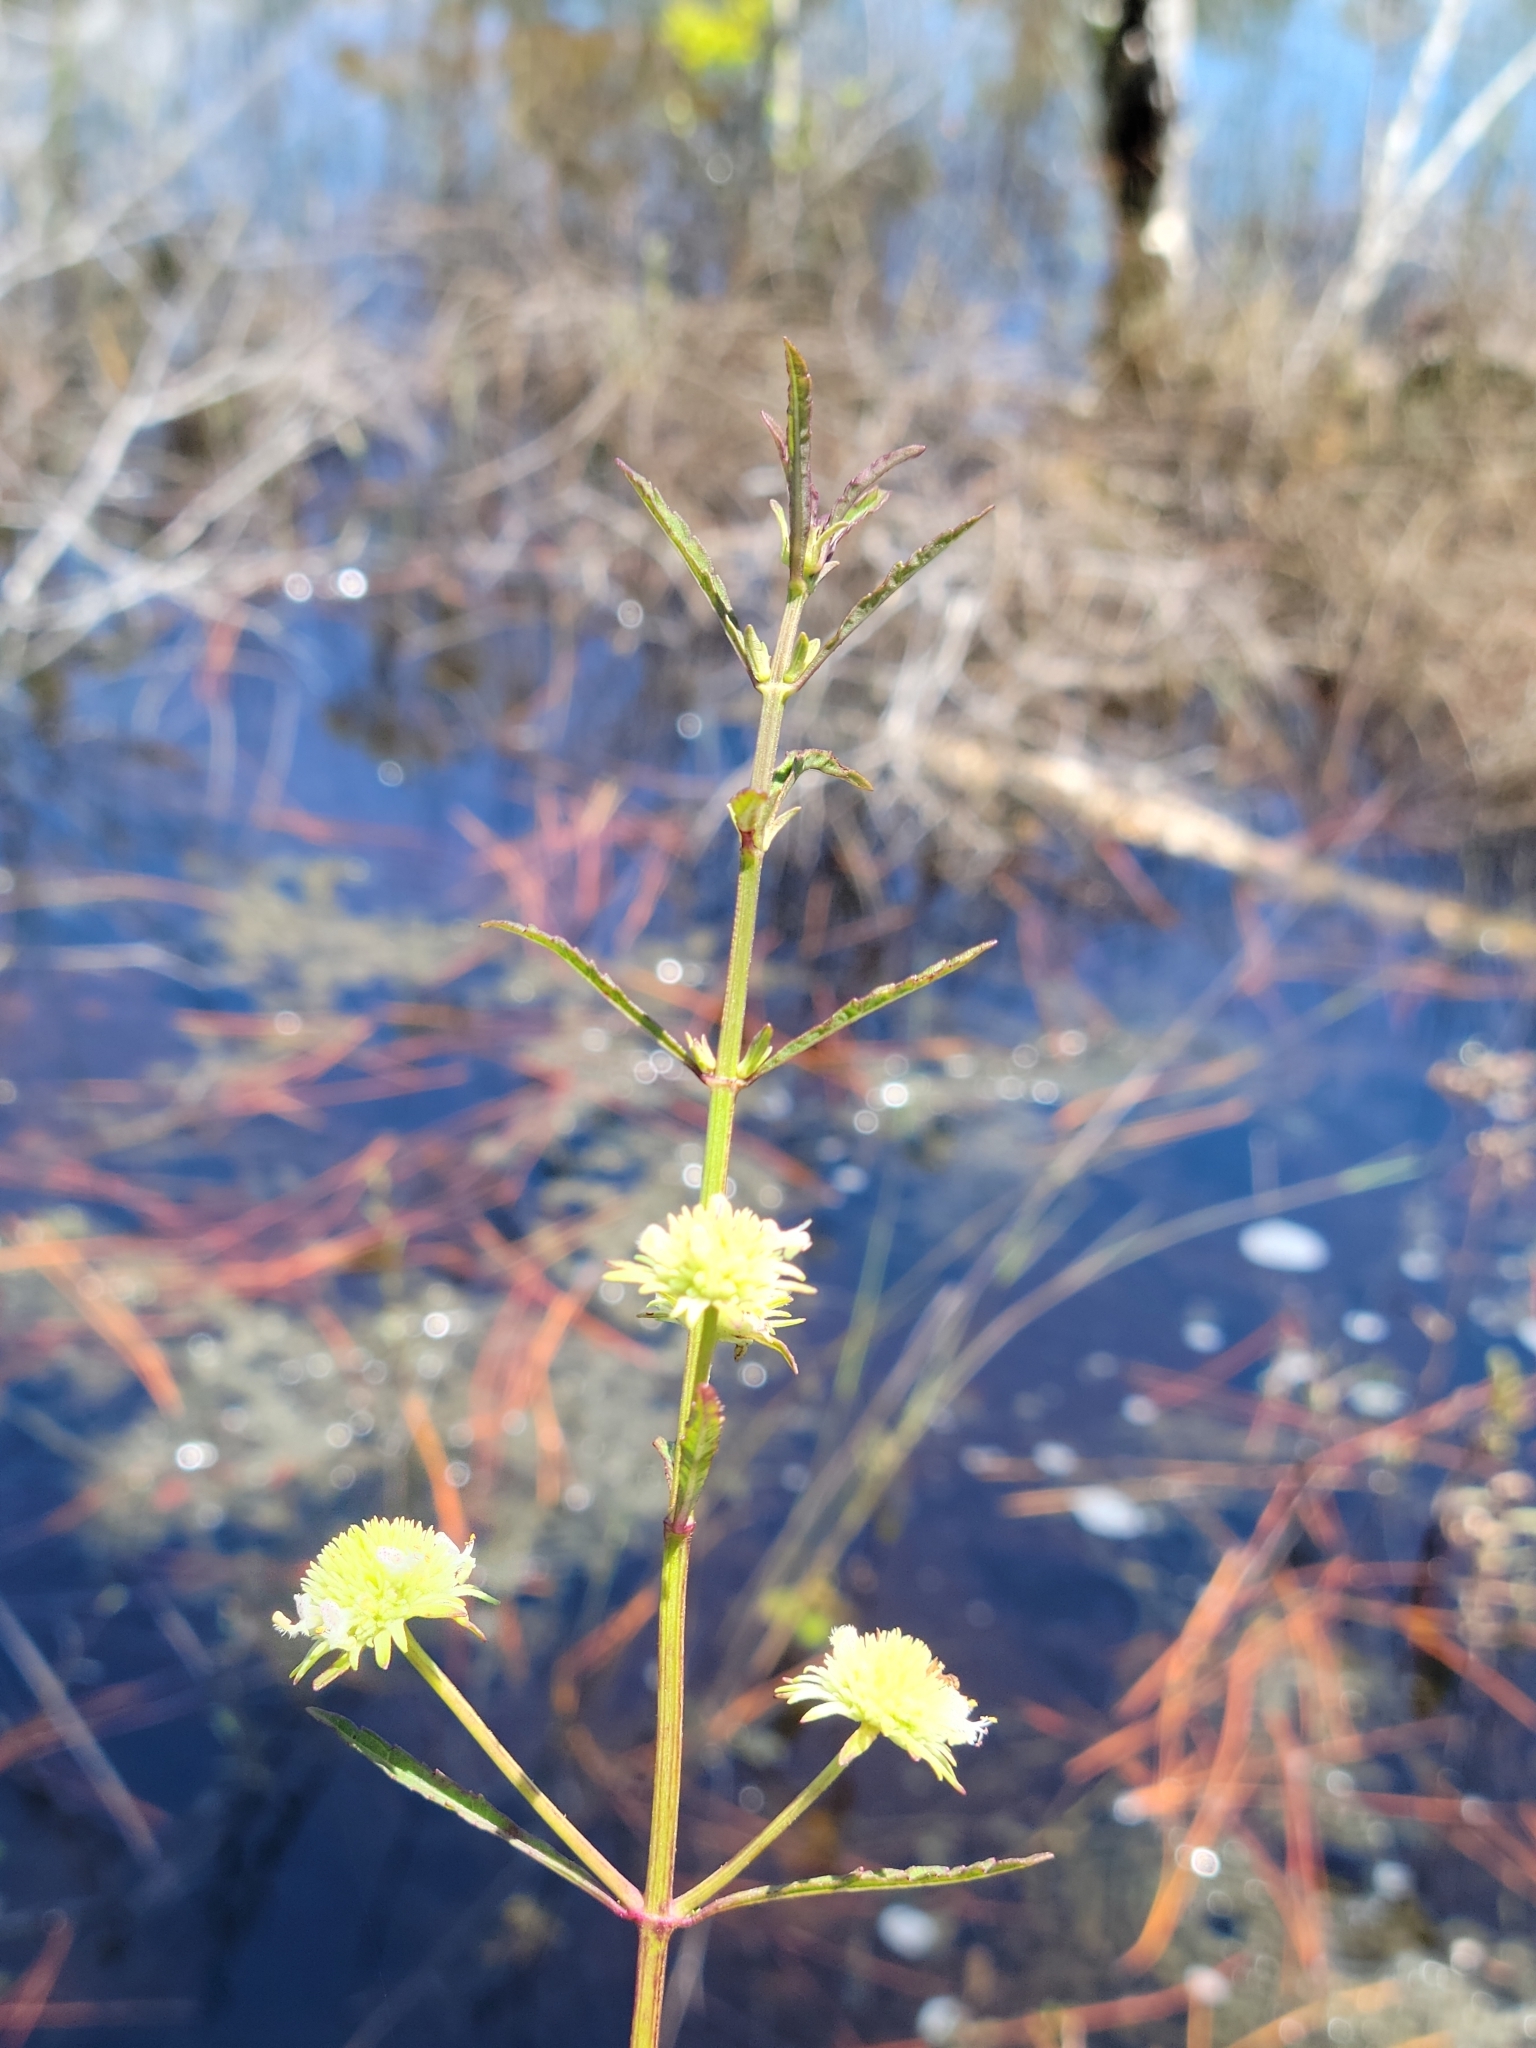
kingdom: Plantae
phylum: Tracheophyta
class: Magnoliopsida
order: Lamiales
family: Lamiaceae
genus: Hyptis
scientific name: Hyptis alata
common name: Cluster bush-mint
